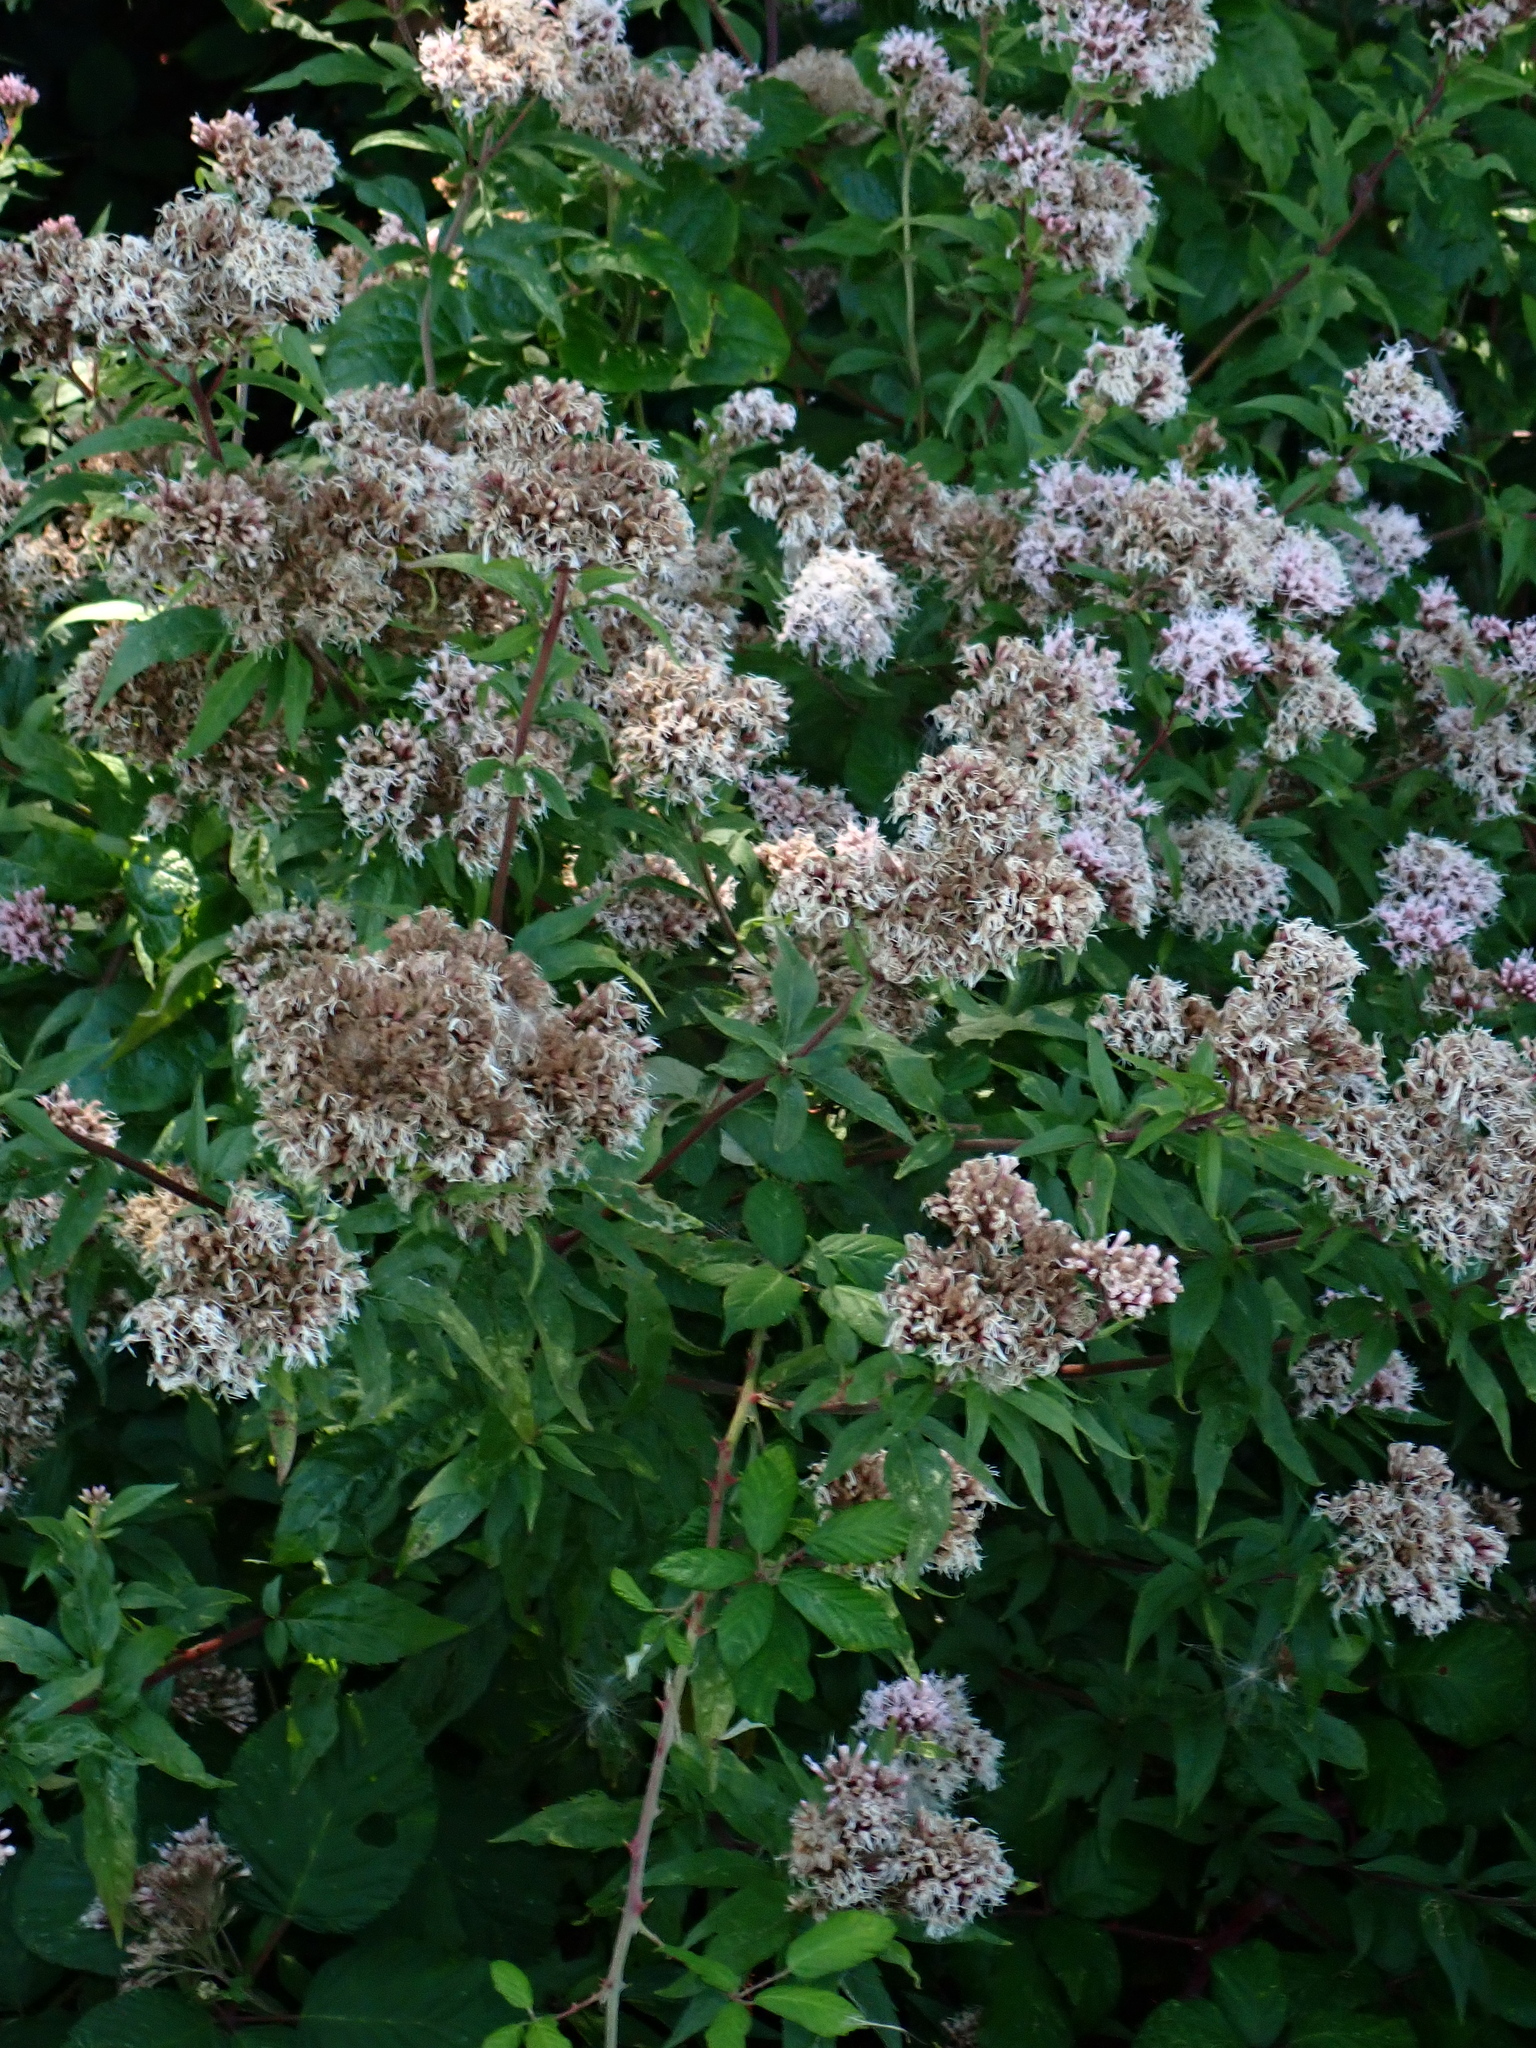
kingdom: Plantae
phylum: Tracheophyta
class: Magnoliopsida
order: Asterales
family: Asteraceae
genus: Eupatorium
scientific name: Eupatorium cannabinum
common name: Hemp-agrimony
